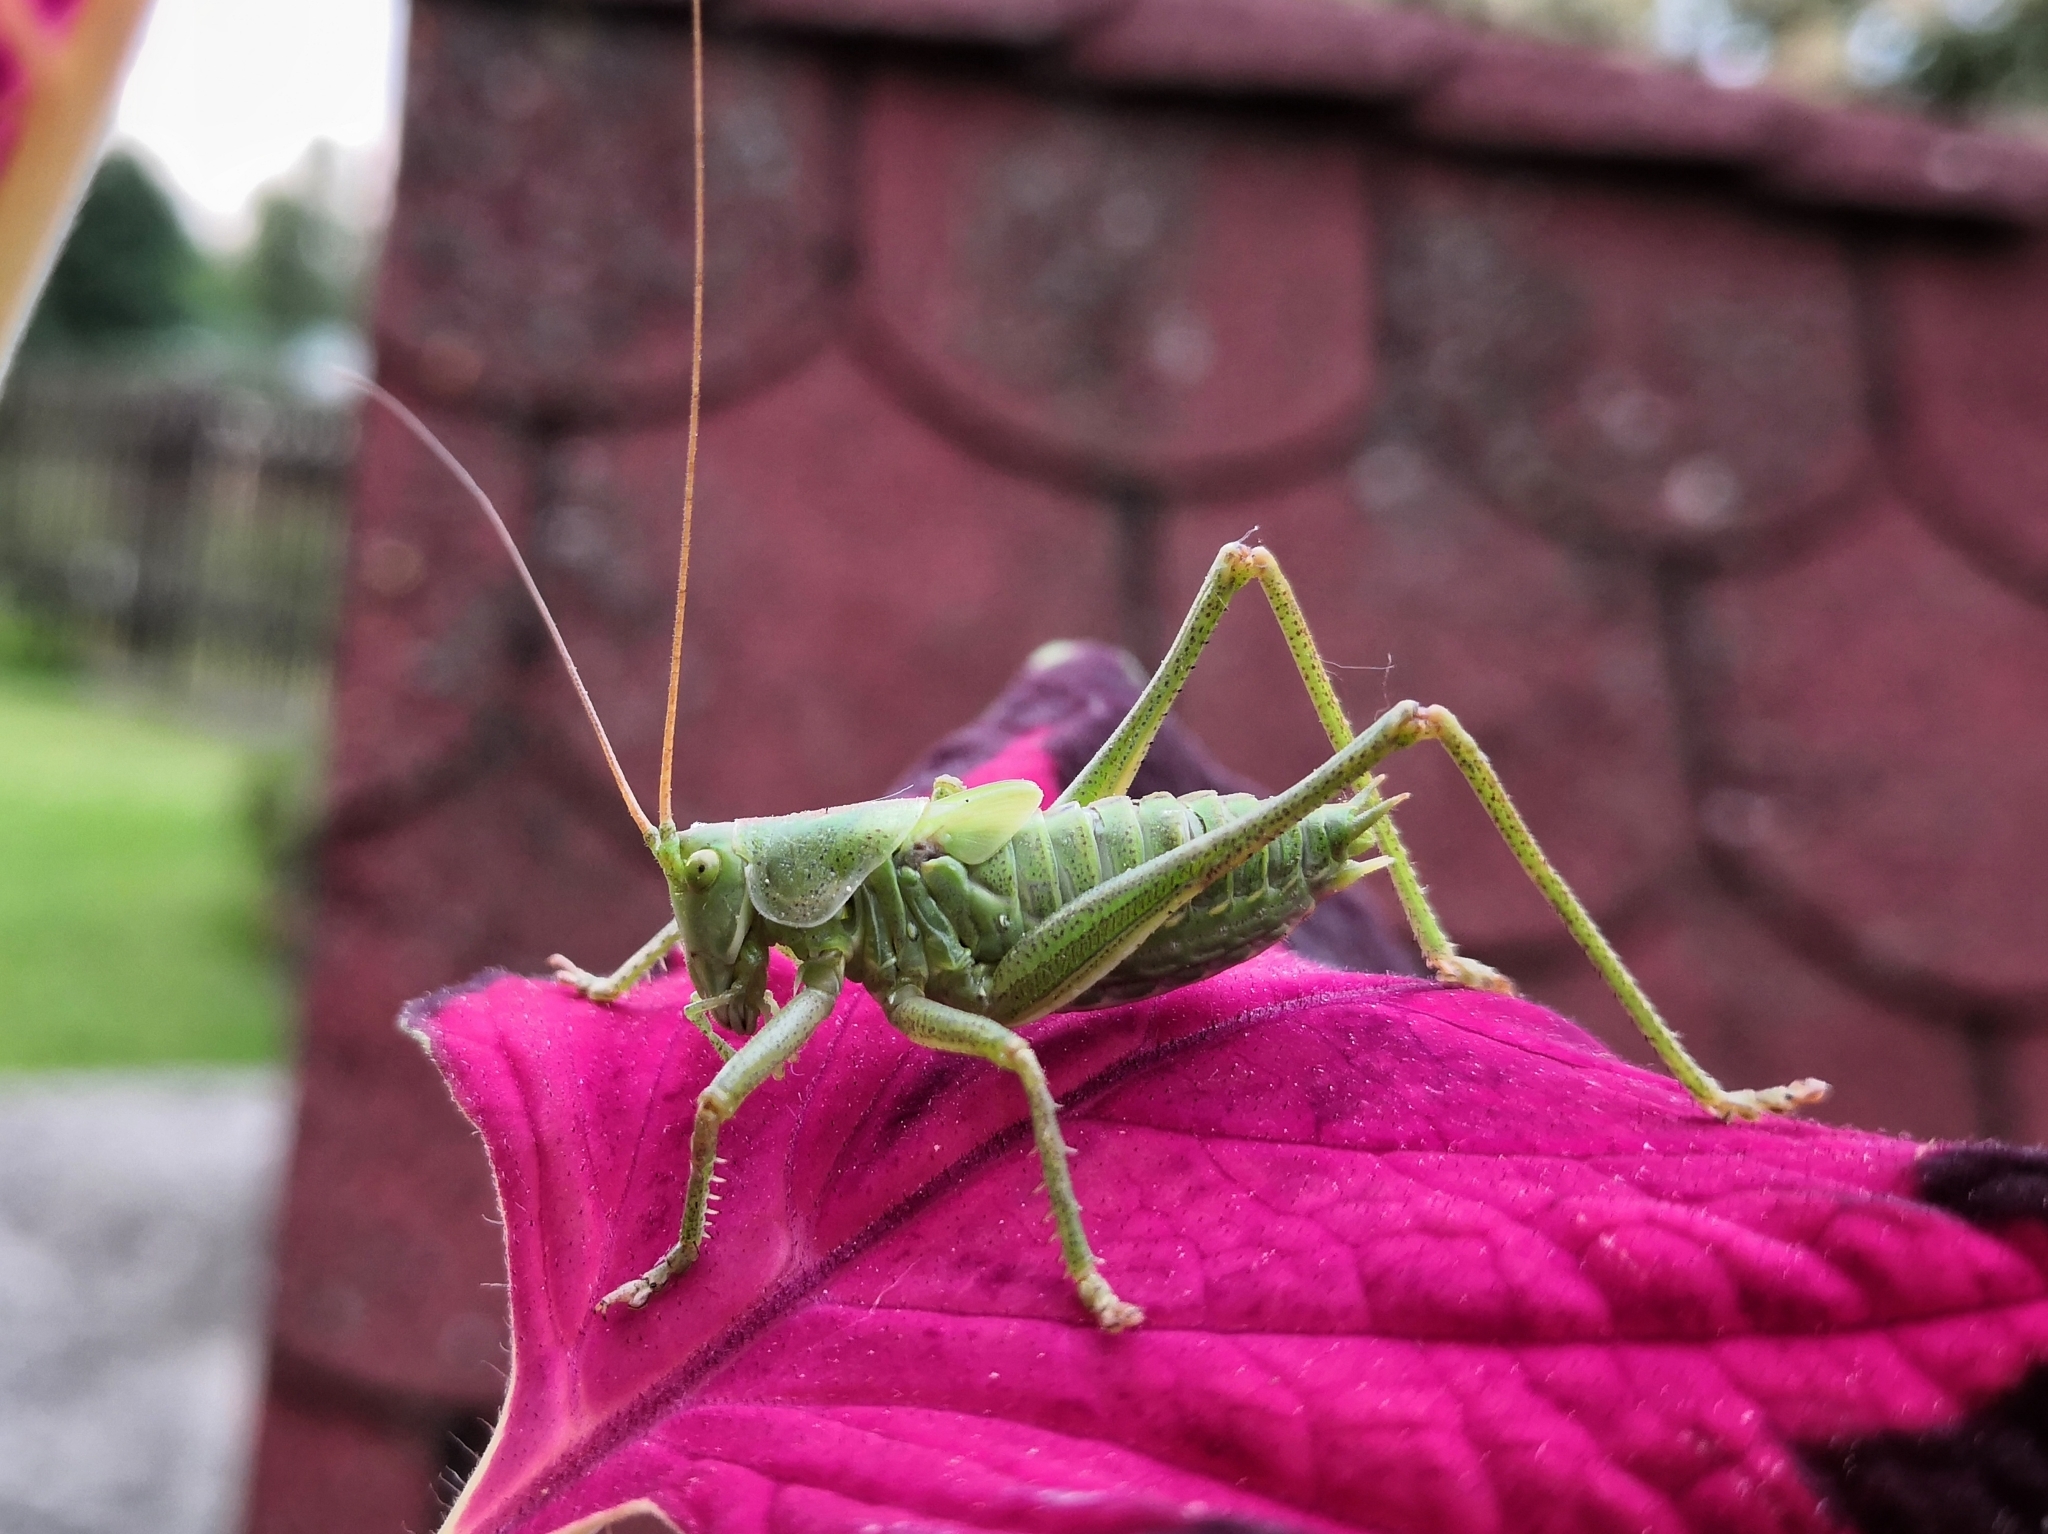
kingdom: Animalia
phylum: Arthropoda
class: Insecta
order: Orthoptera
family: Tettigoniidae
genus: Tettigonia
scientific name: Tettigonia viridissima
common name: Great green bush-cricket
